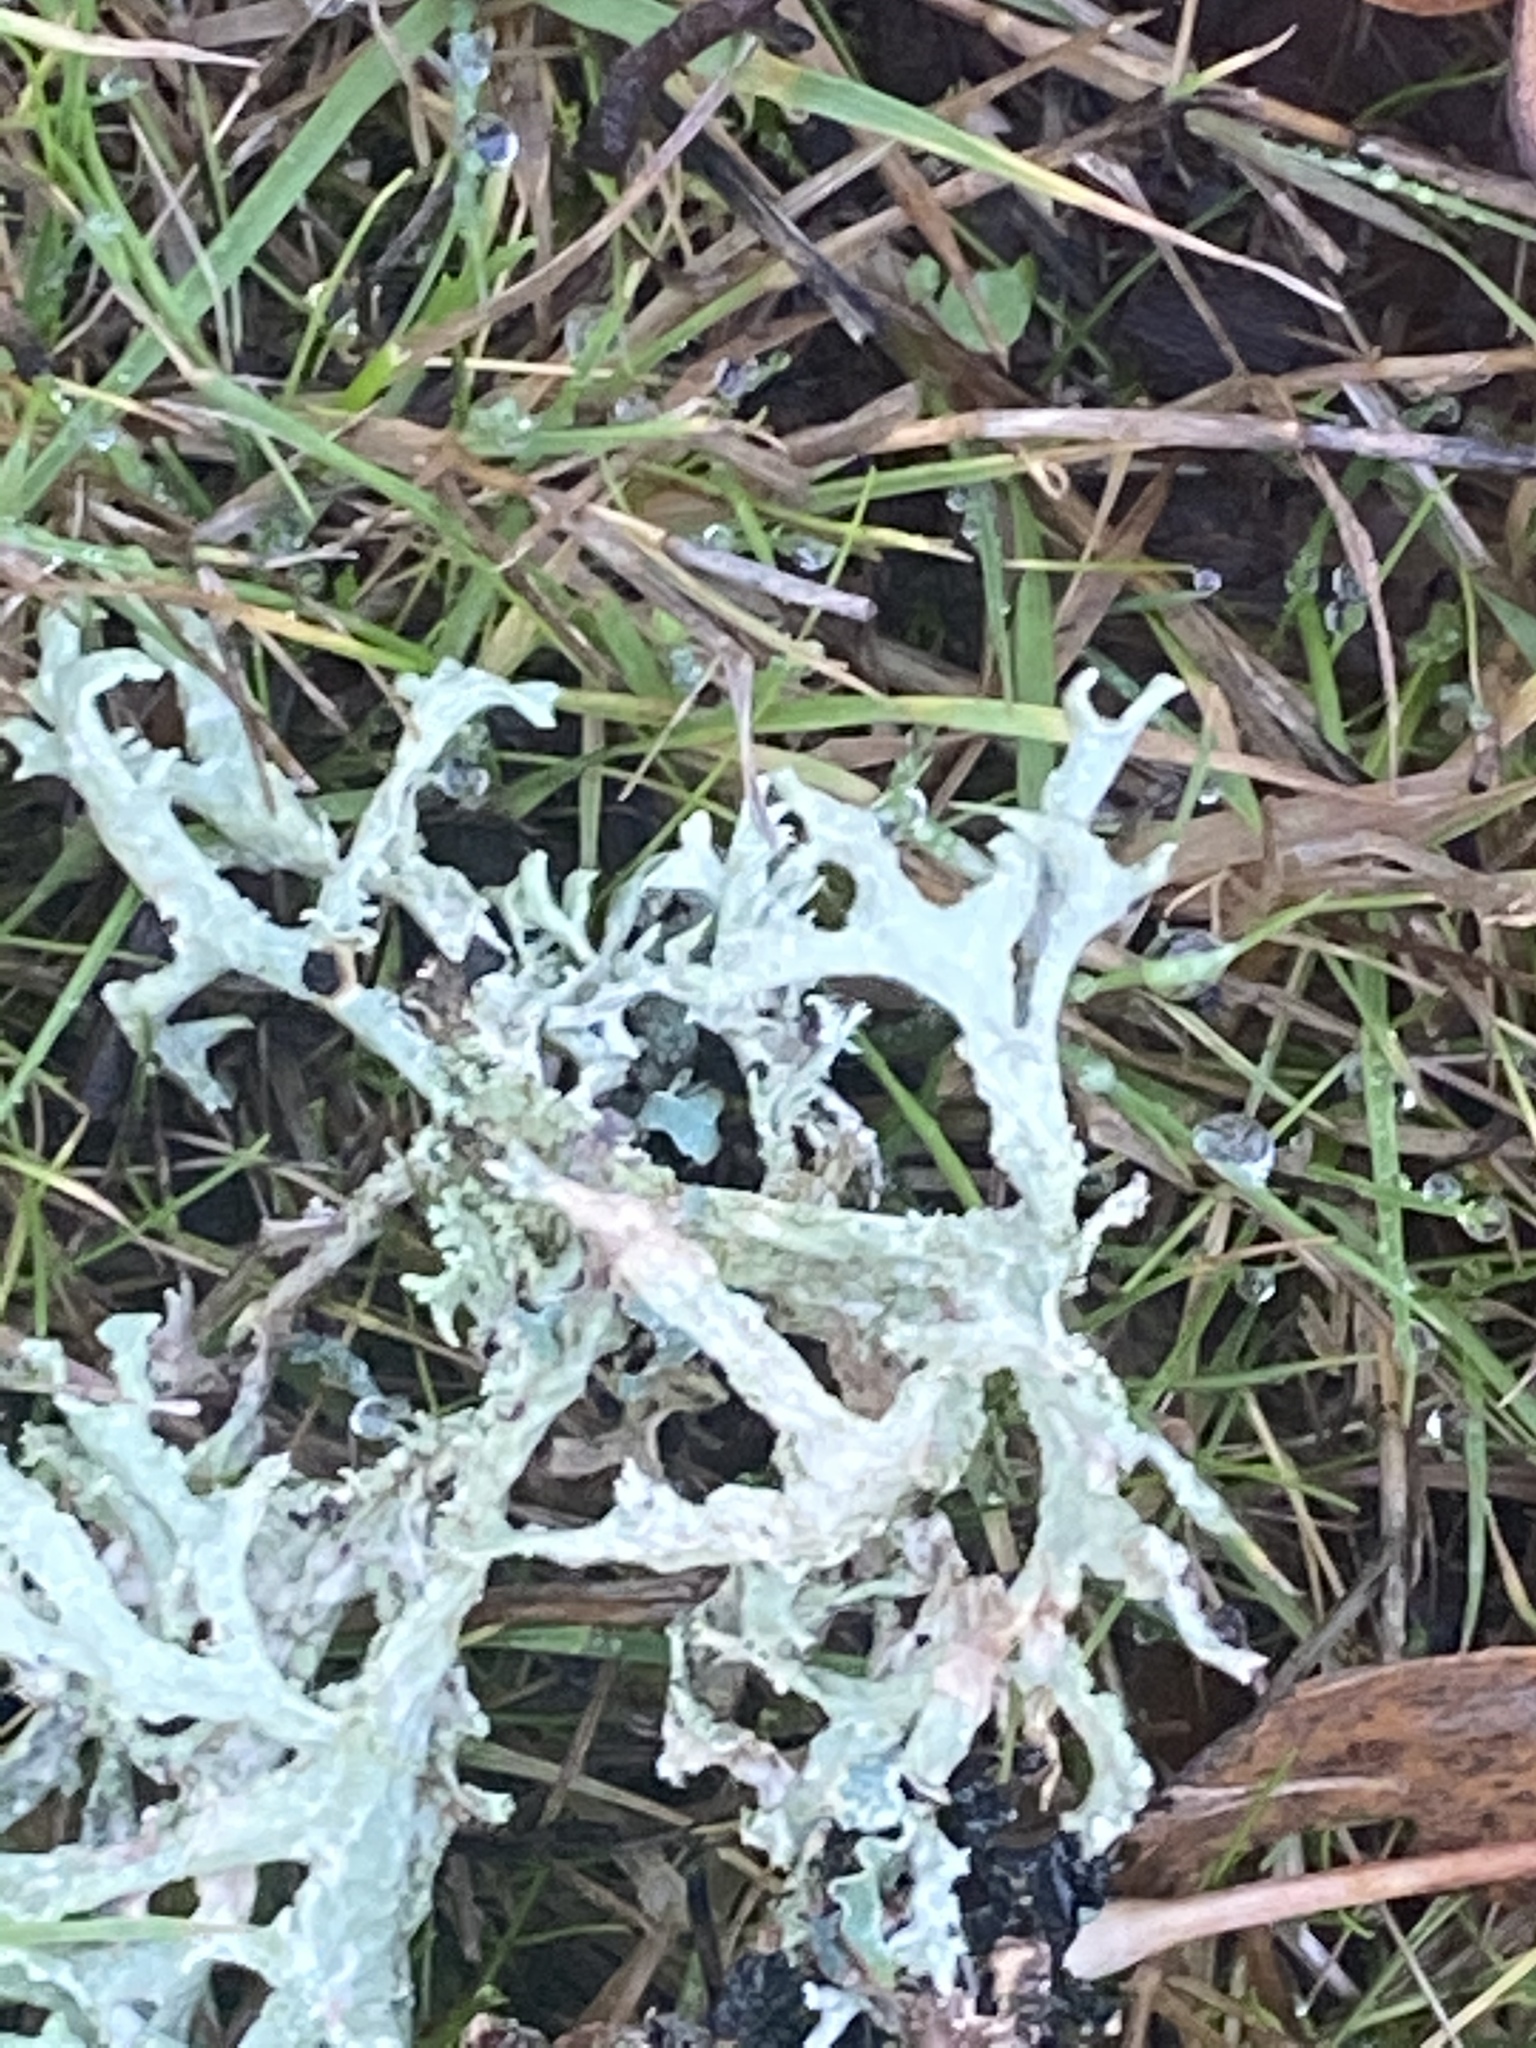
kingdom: Fungi
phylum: Ascomycota
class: Lecanoromycetes
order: Lecanorales
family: Parmeliaceae
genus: Evernia
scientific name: Evernia prunastri
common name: Oak moss
